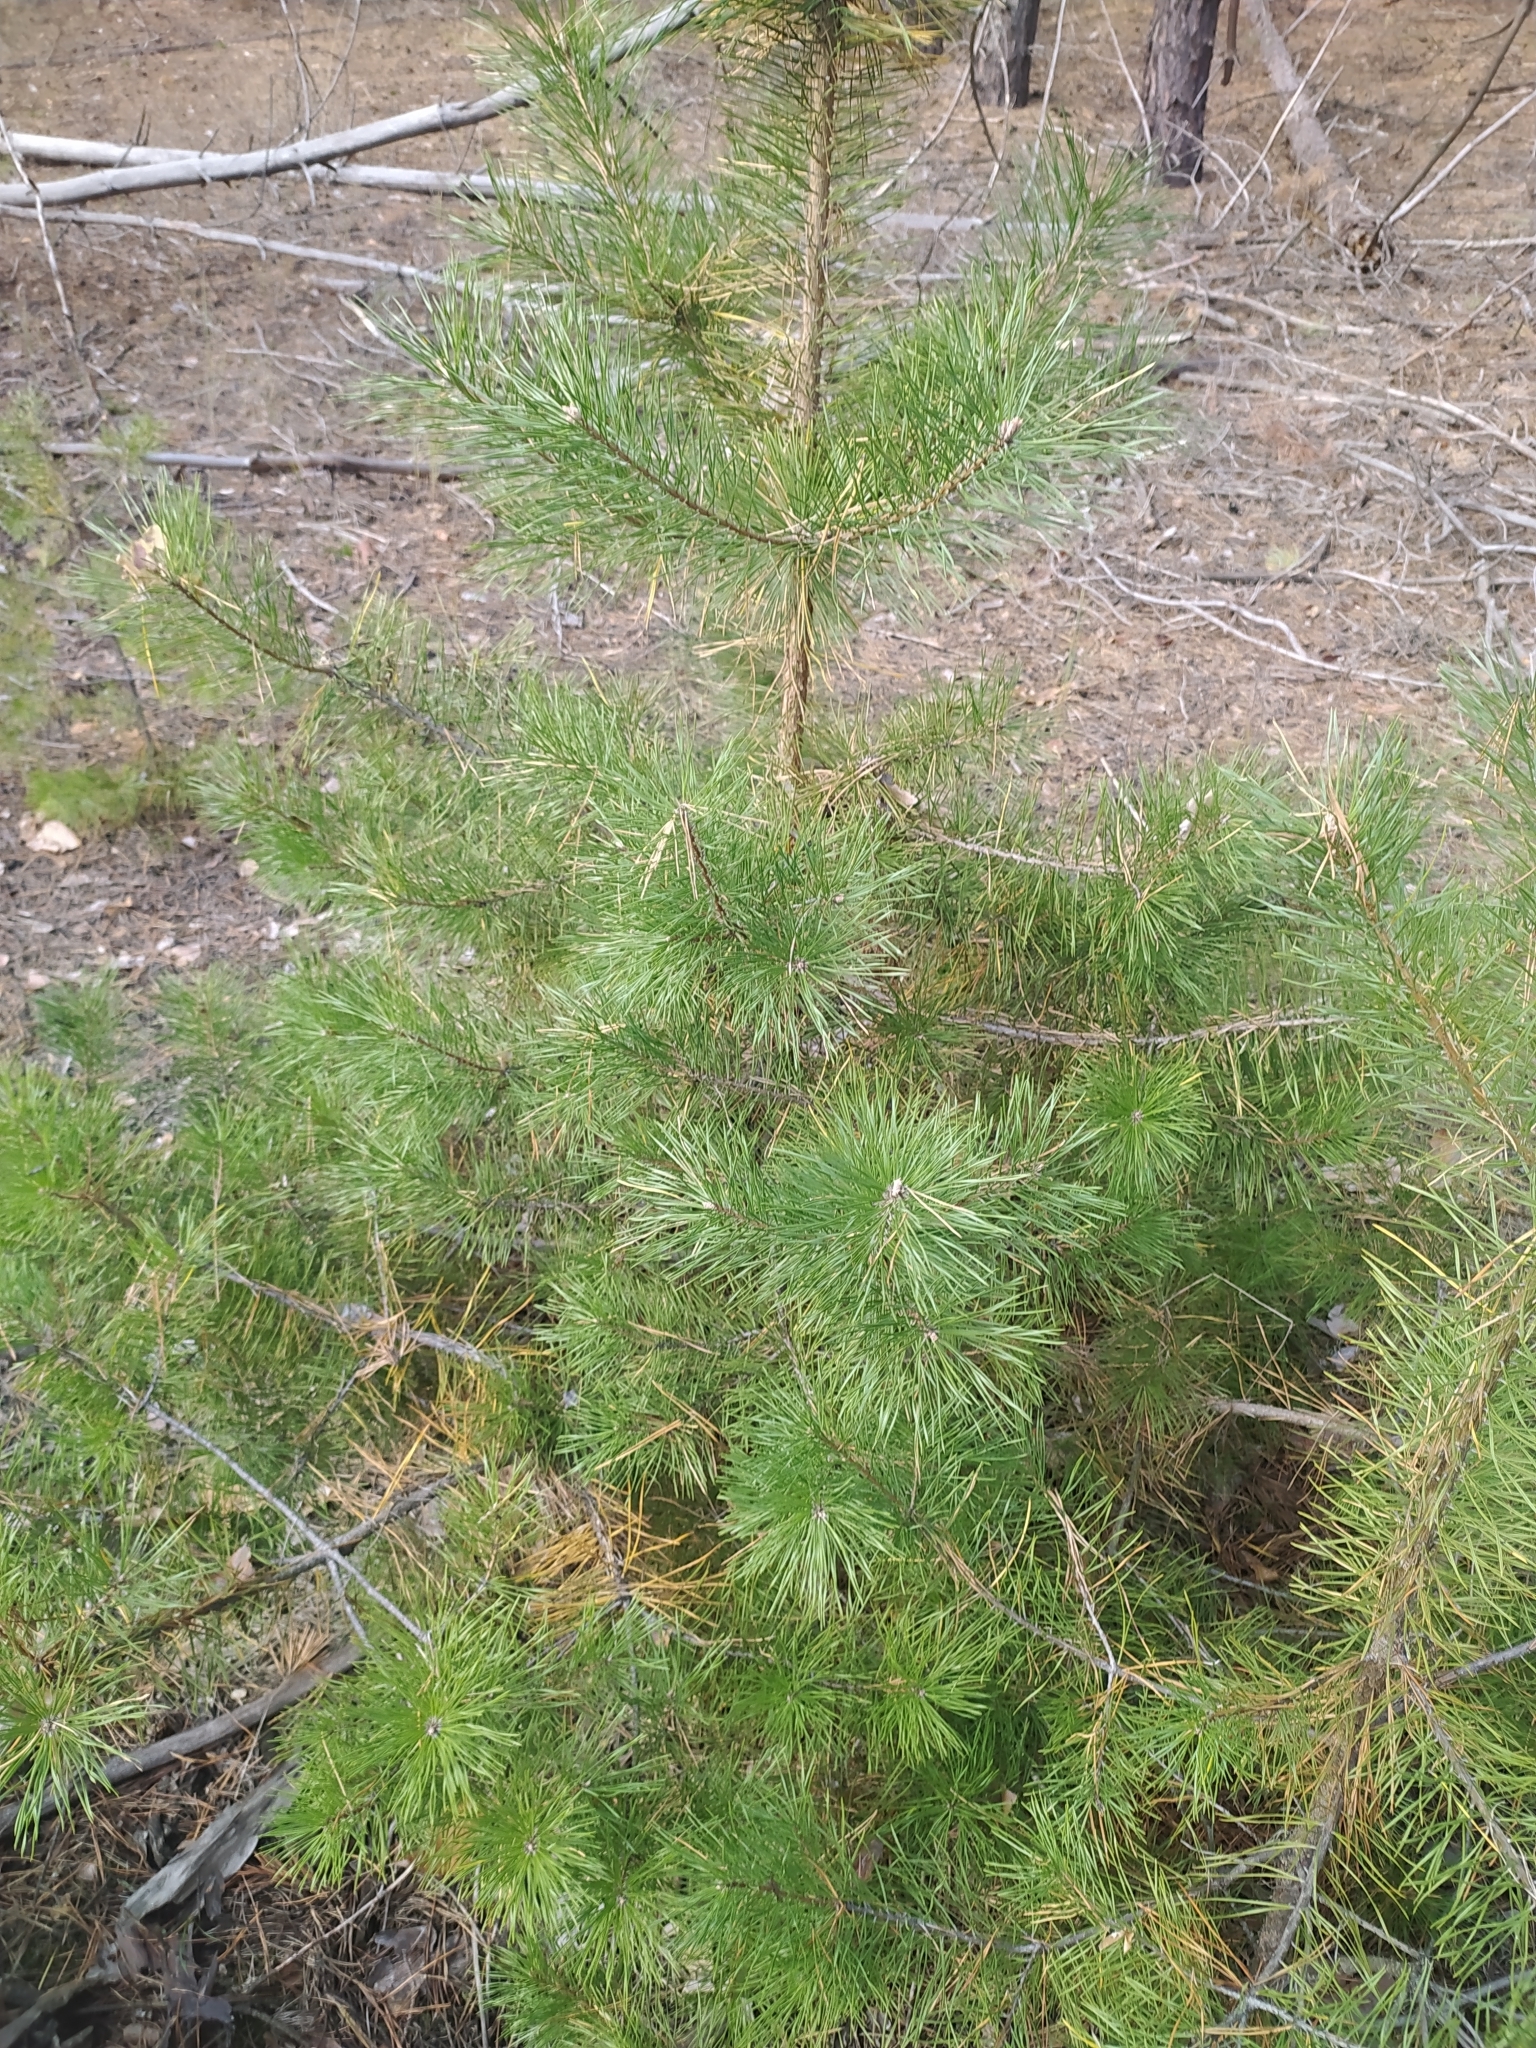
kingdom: Plantae
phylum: Tracheophyta
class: Pinopsida
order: Pinales
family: Pinaceae
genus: Pinus
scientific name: Pinus sylvestris
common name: Scots pine
